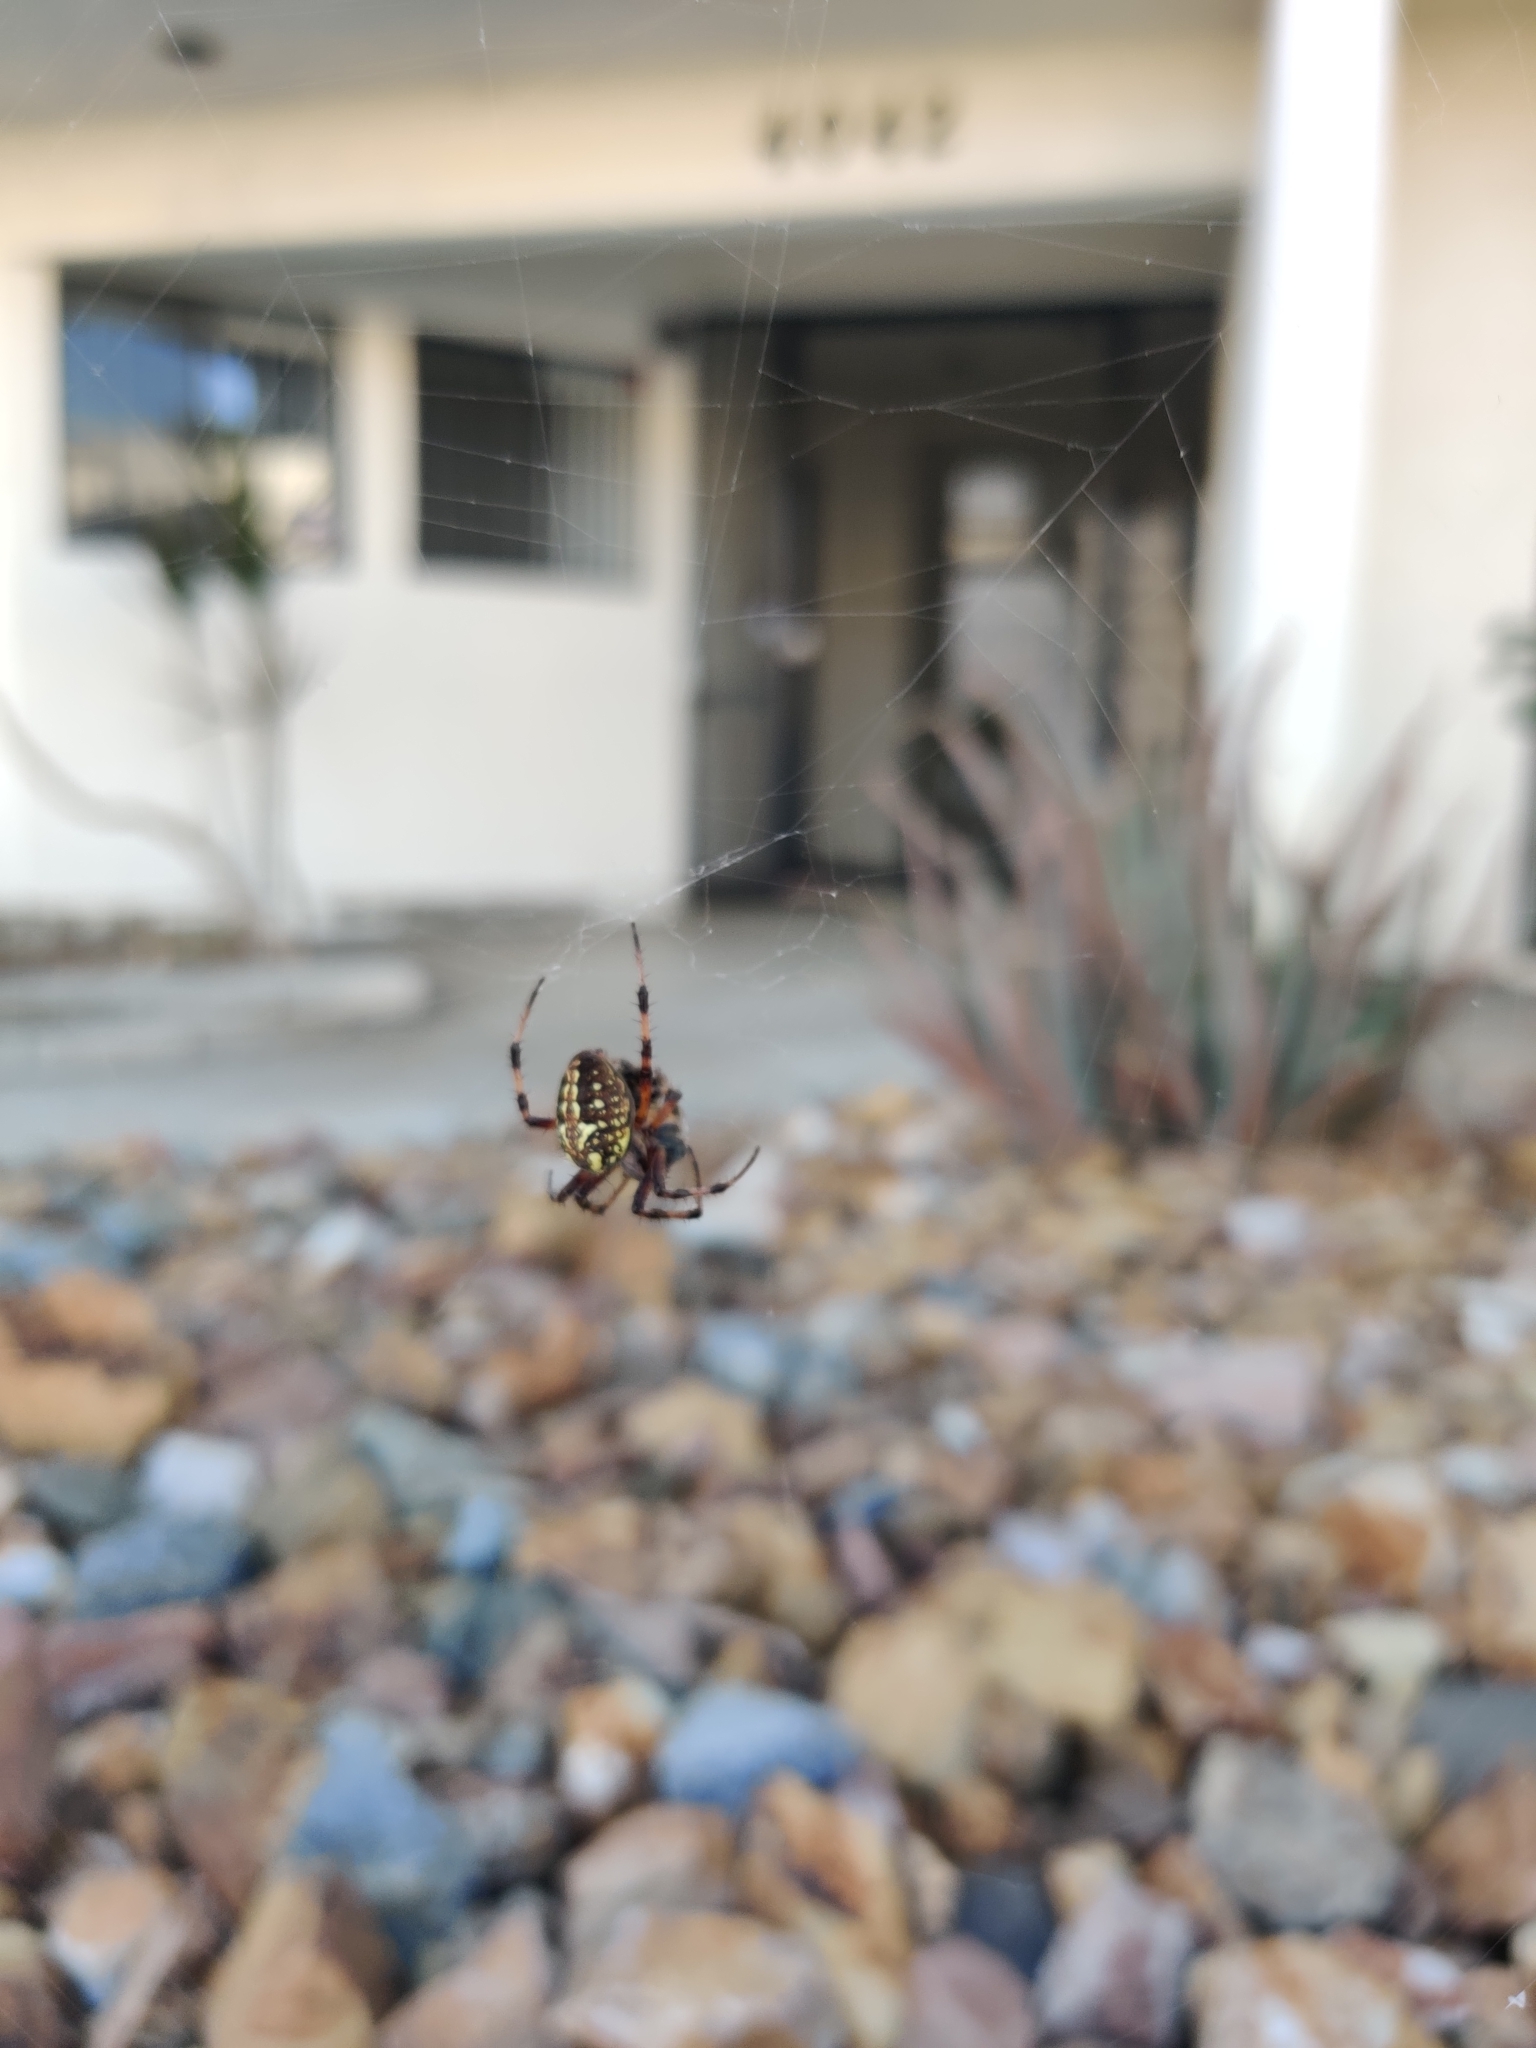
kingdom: Animalia
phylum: Arthropoda
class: Arachnida
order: Araneae
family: Araneidae
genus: Neoscona
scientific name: Neoscona oaxacensis
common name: Orb weavers
